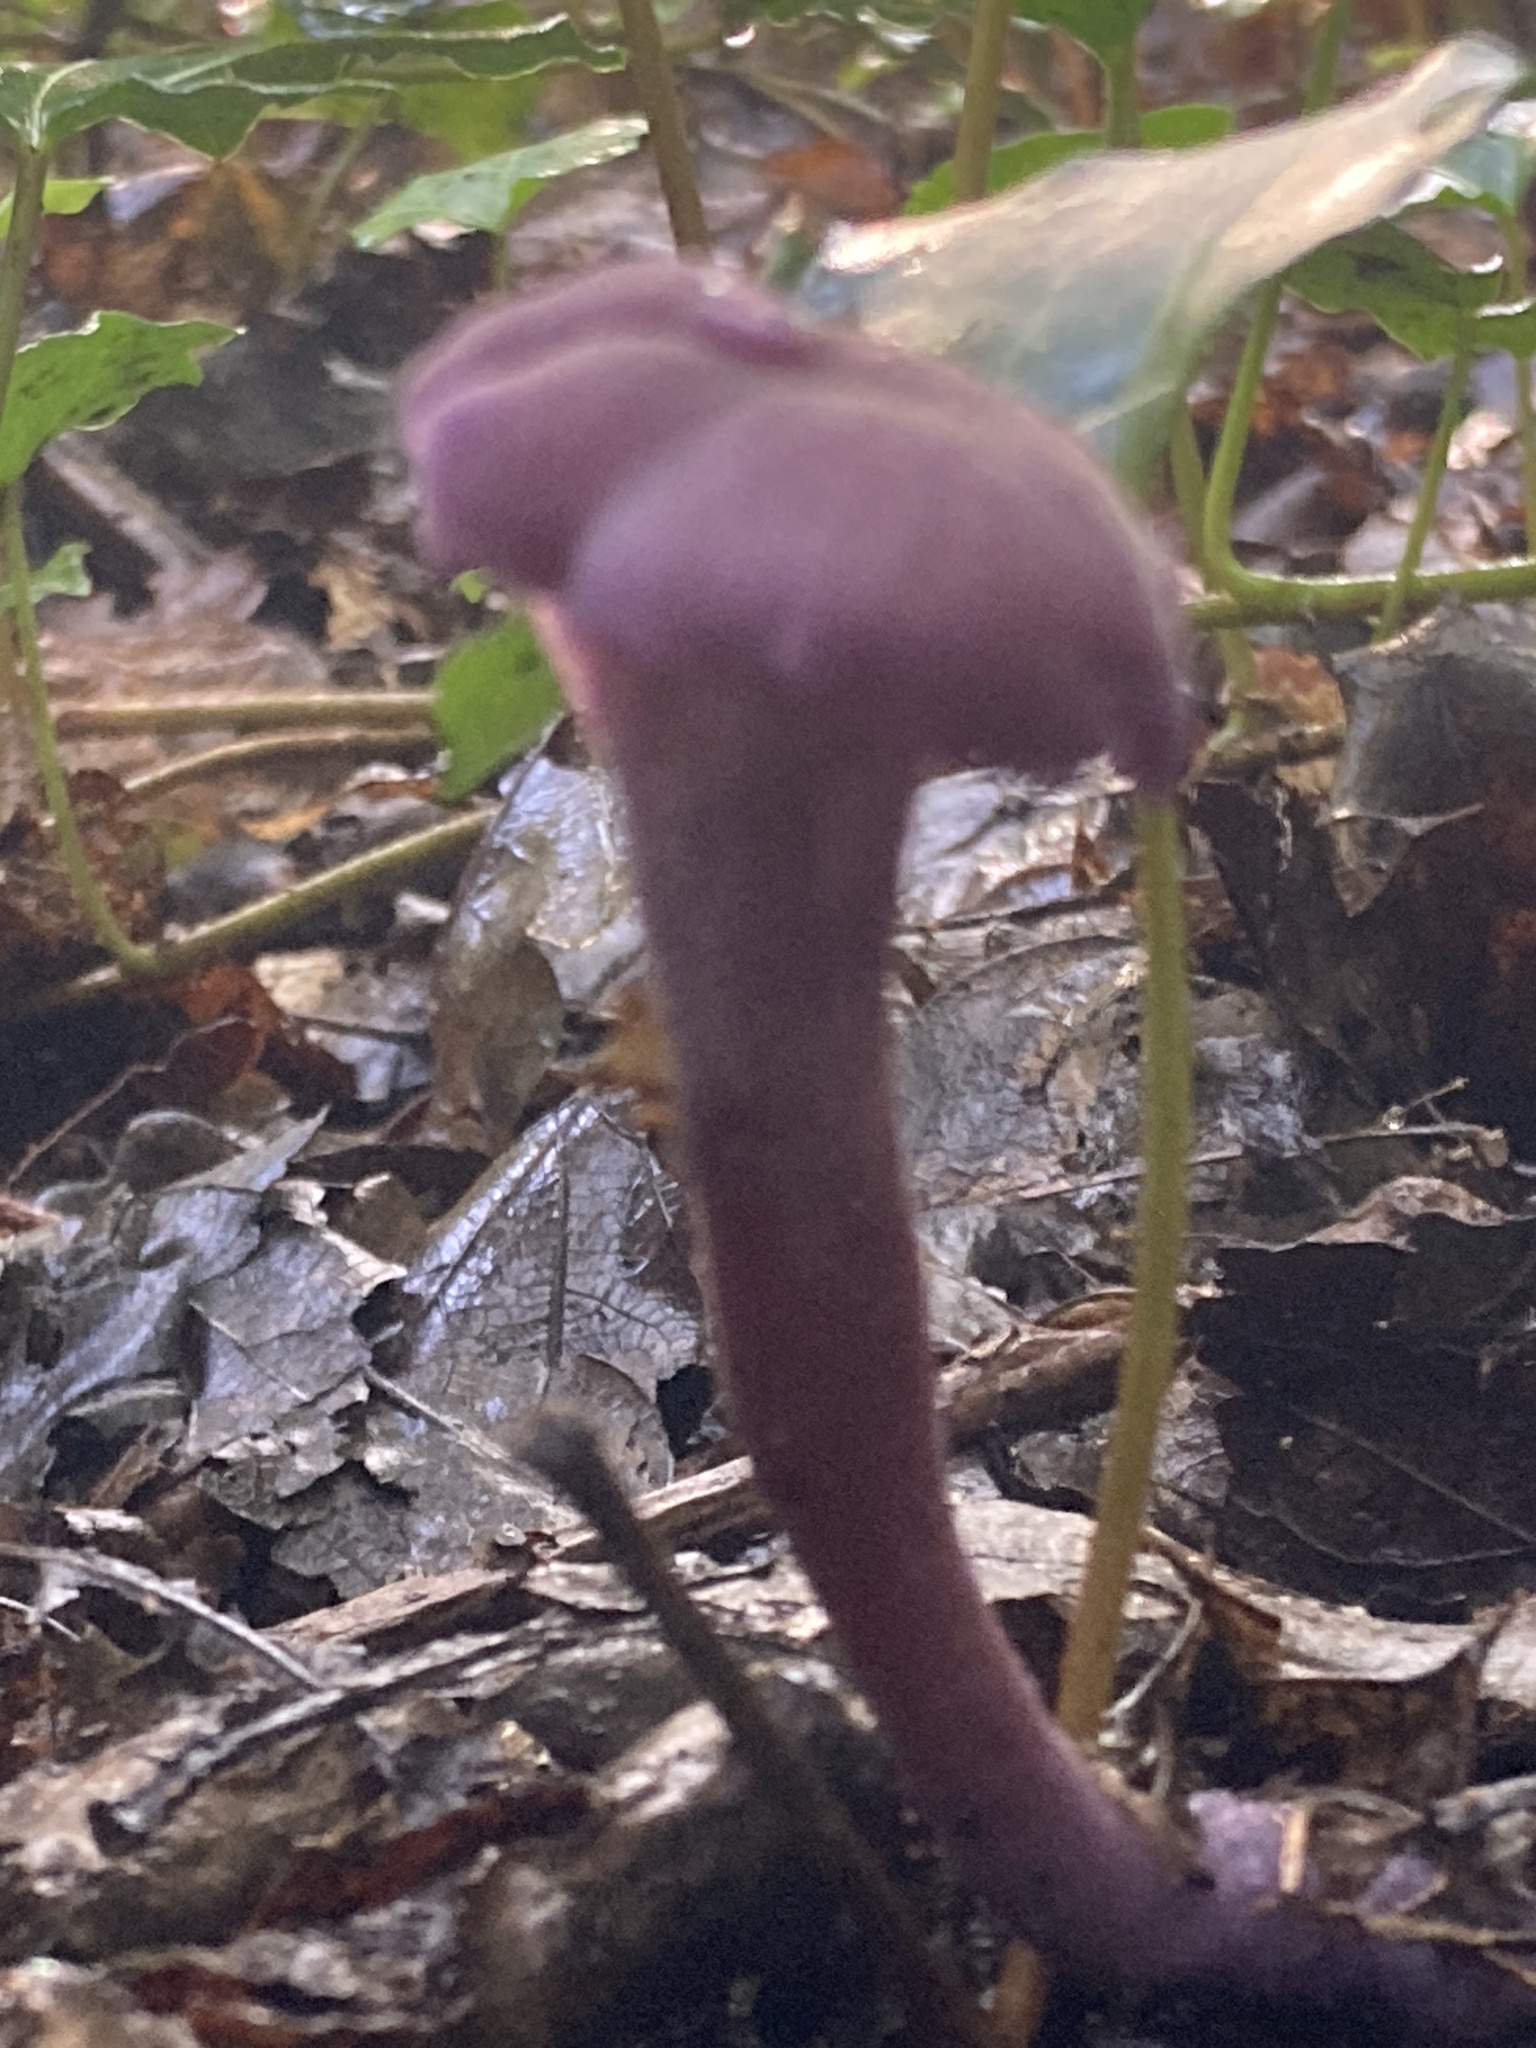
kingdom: Fungi
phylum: Basidiomycota
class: Agaricomycetes
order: Agaricales
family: Hydnangiaceae
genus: Laccaria
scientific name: Laccaria amethystina
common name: Amethyst deceiver
